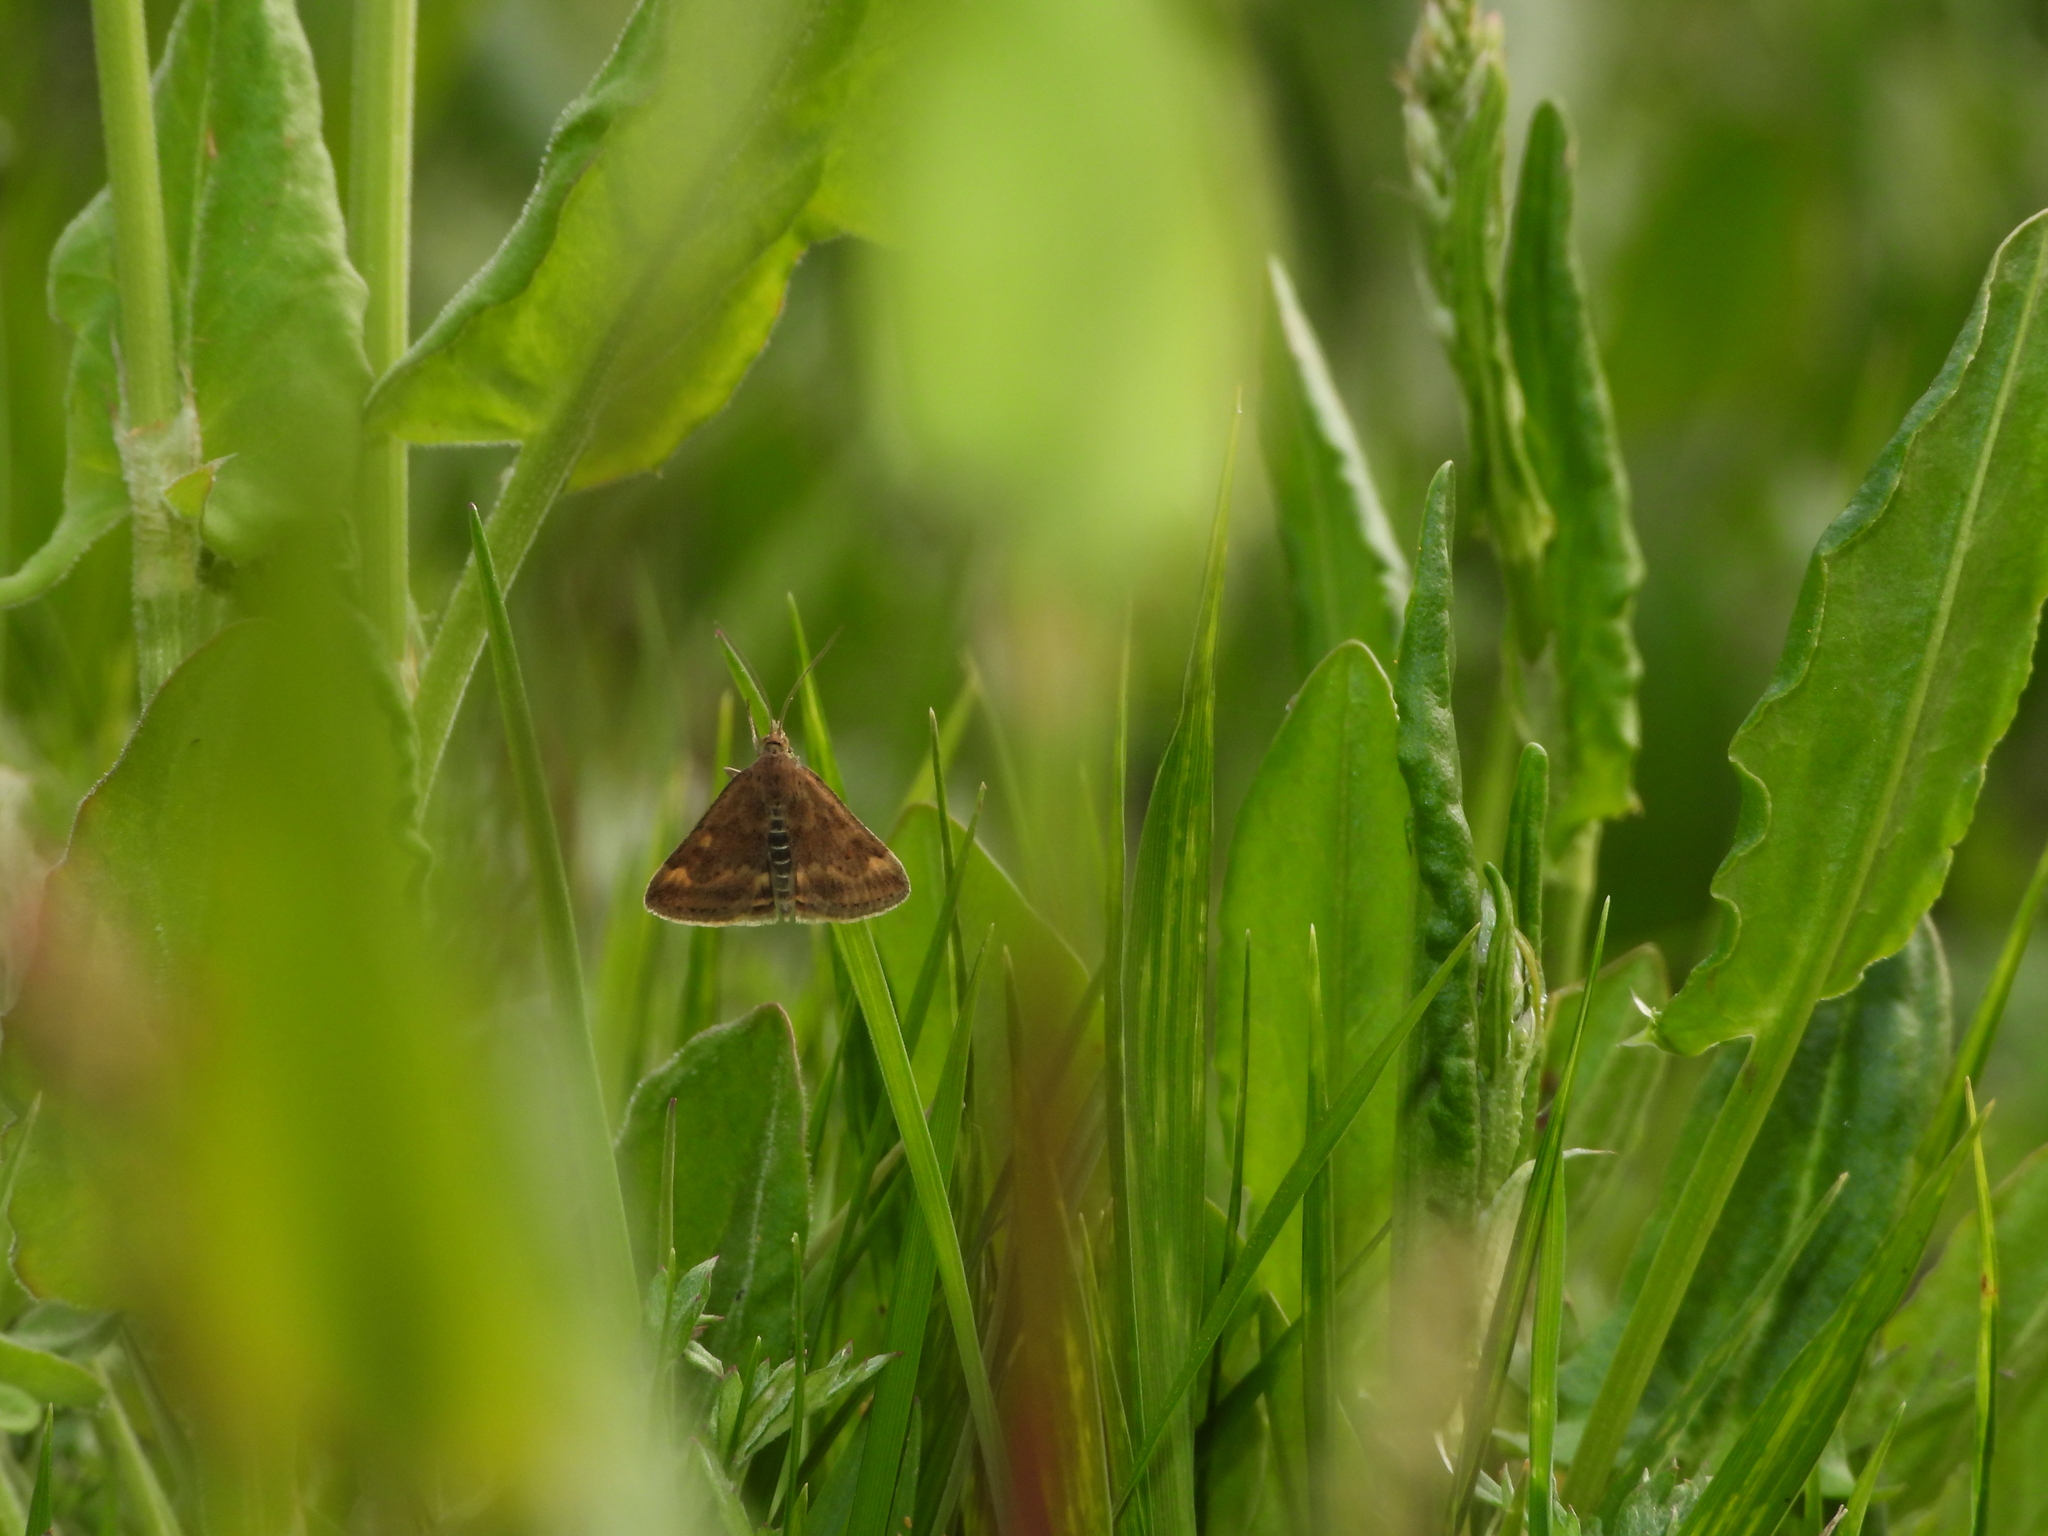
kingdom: Animalia
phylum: Arthropoda
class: Insecta
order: Lepidoptera
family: Crambidae
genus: Pyrausta
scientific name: Pyrausta despicata
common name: Straw-barred pearl
